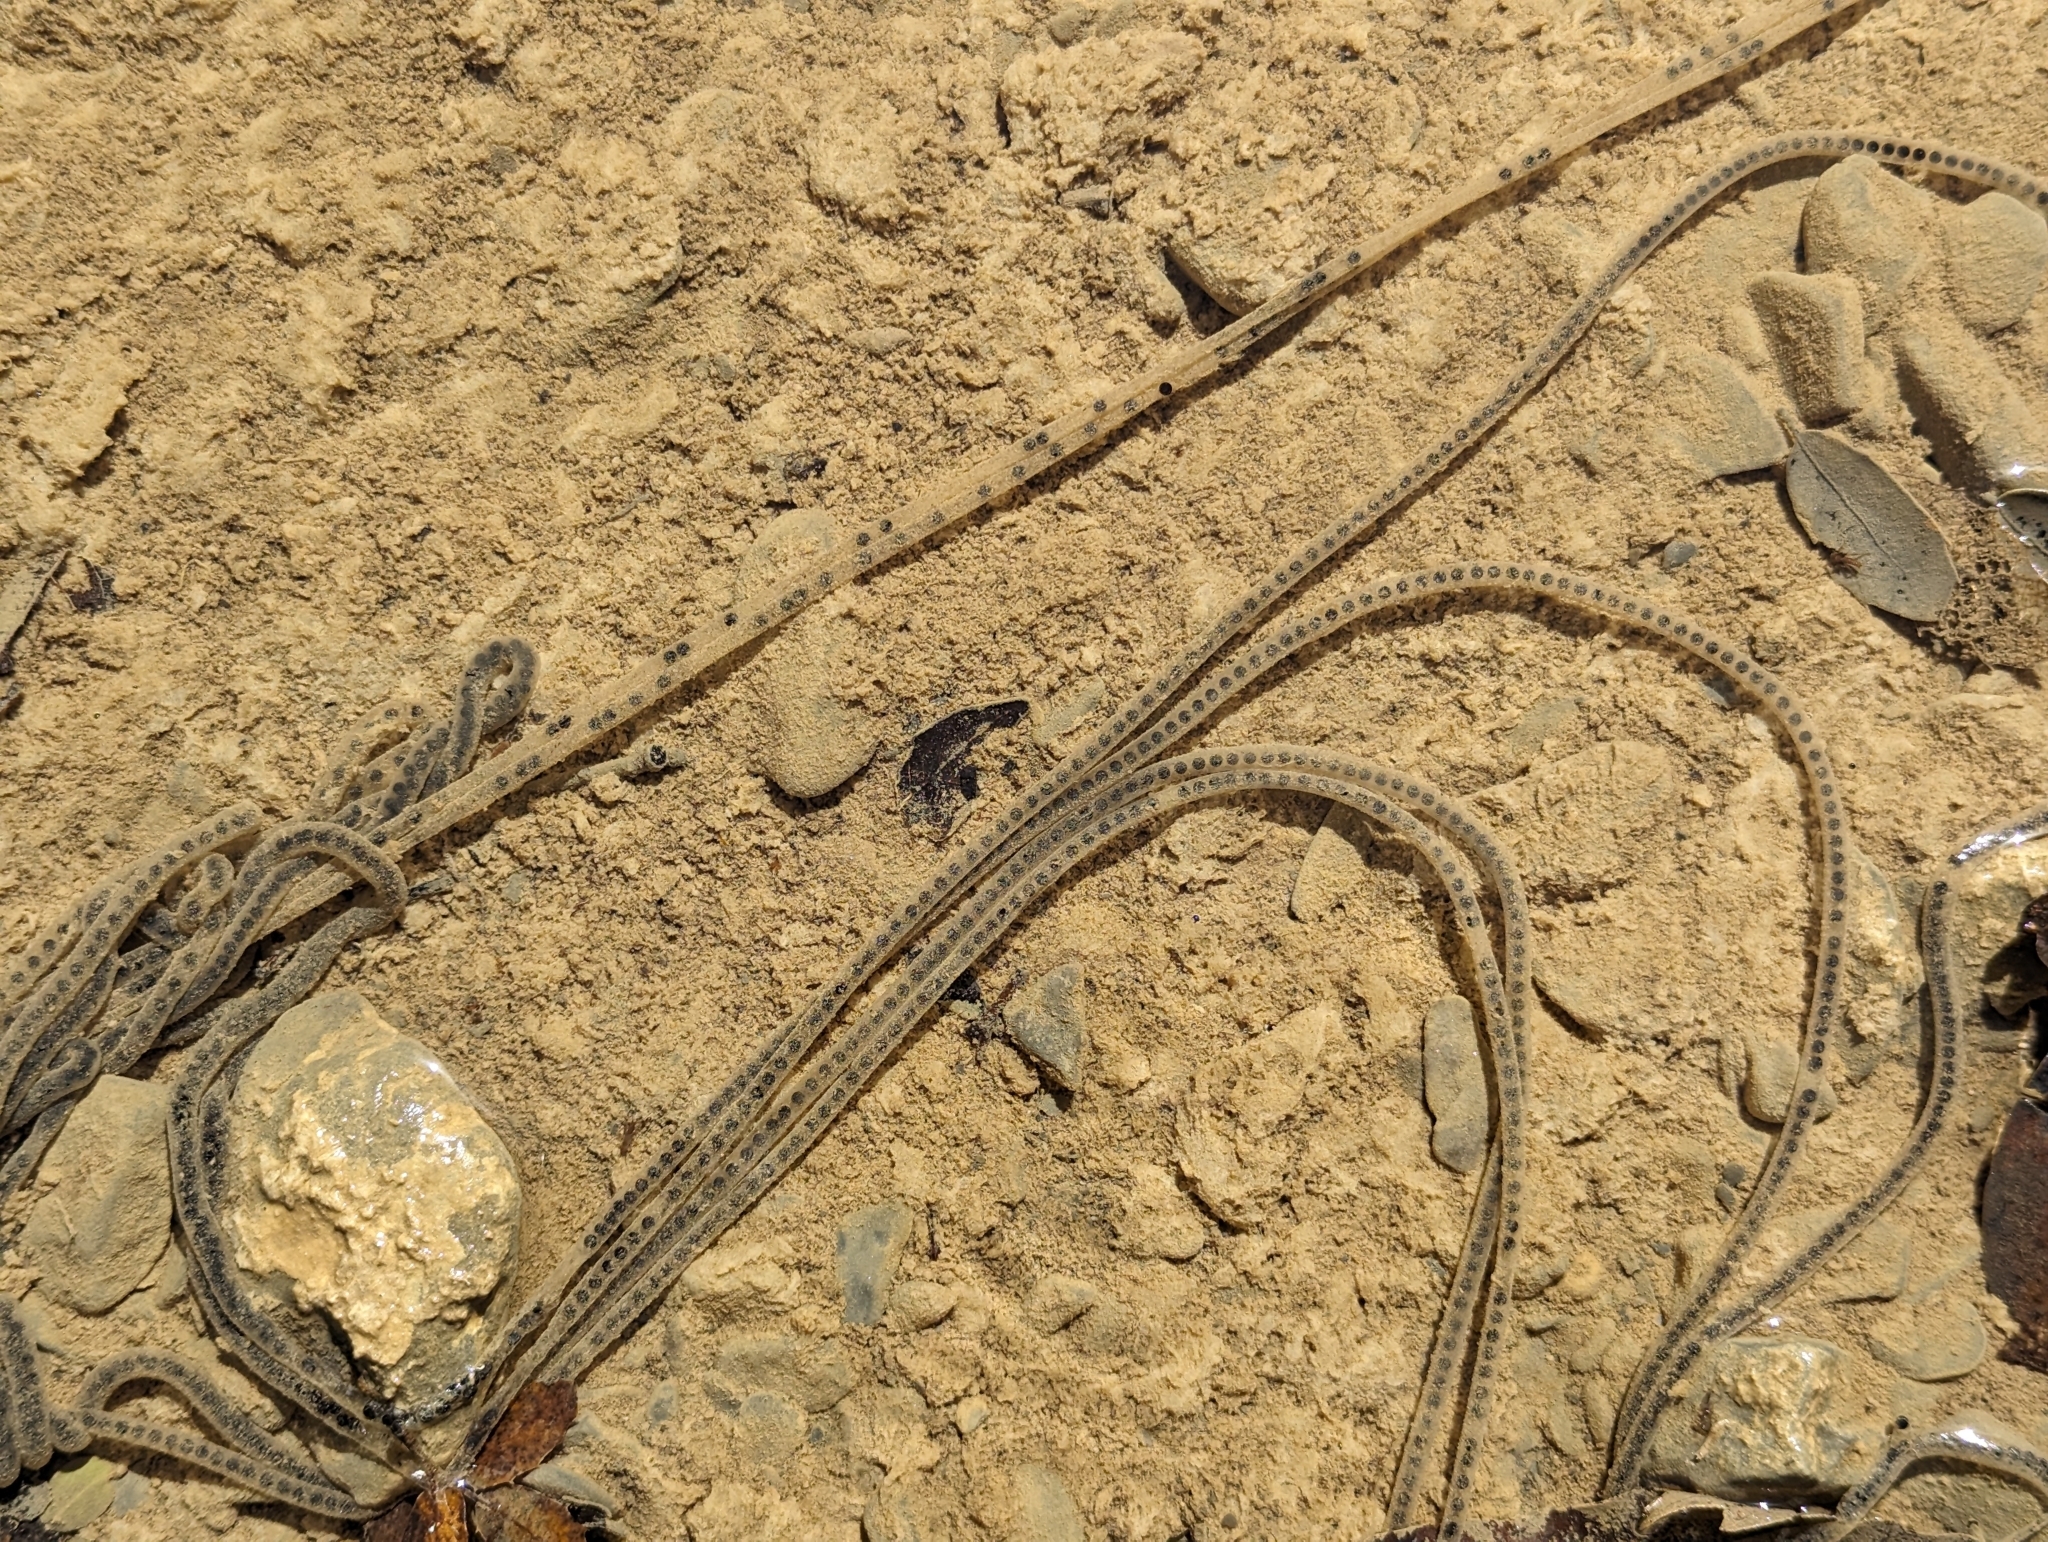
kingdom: Animalia
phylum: Chordata
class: Amphibia
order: Anura
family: Bufonidae
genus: Bufotes
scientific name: Bufotes viridis
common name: European green toad
